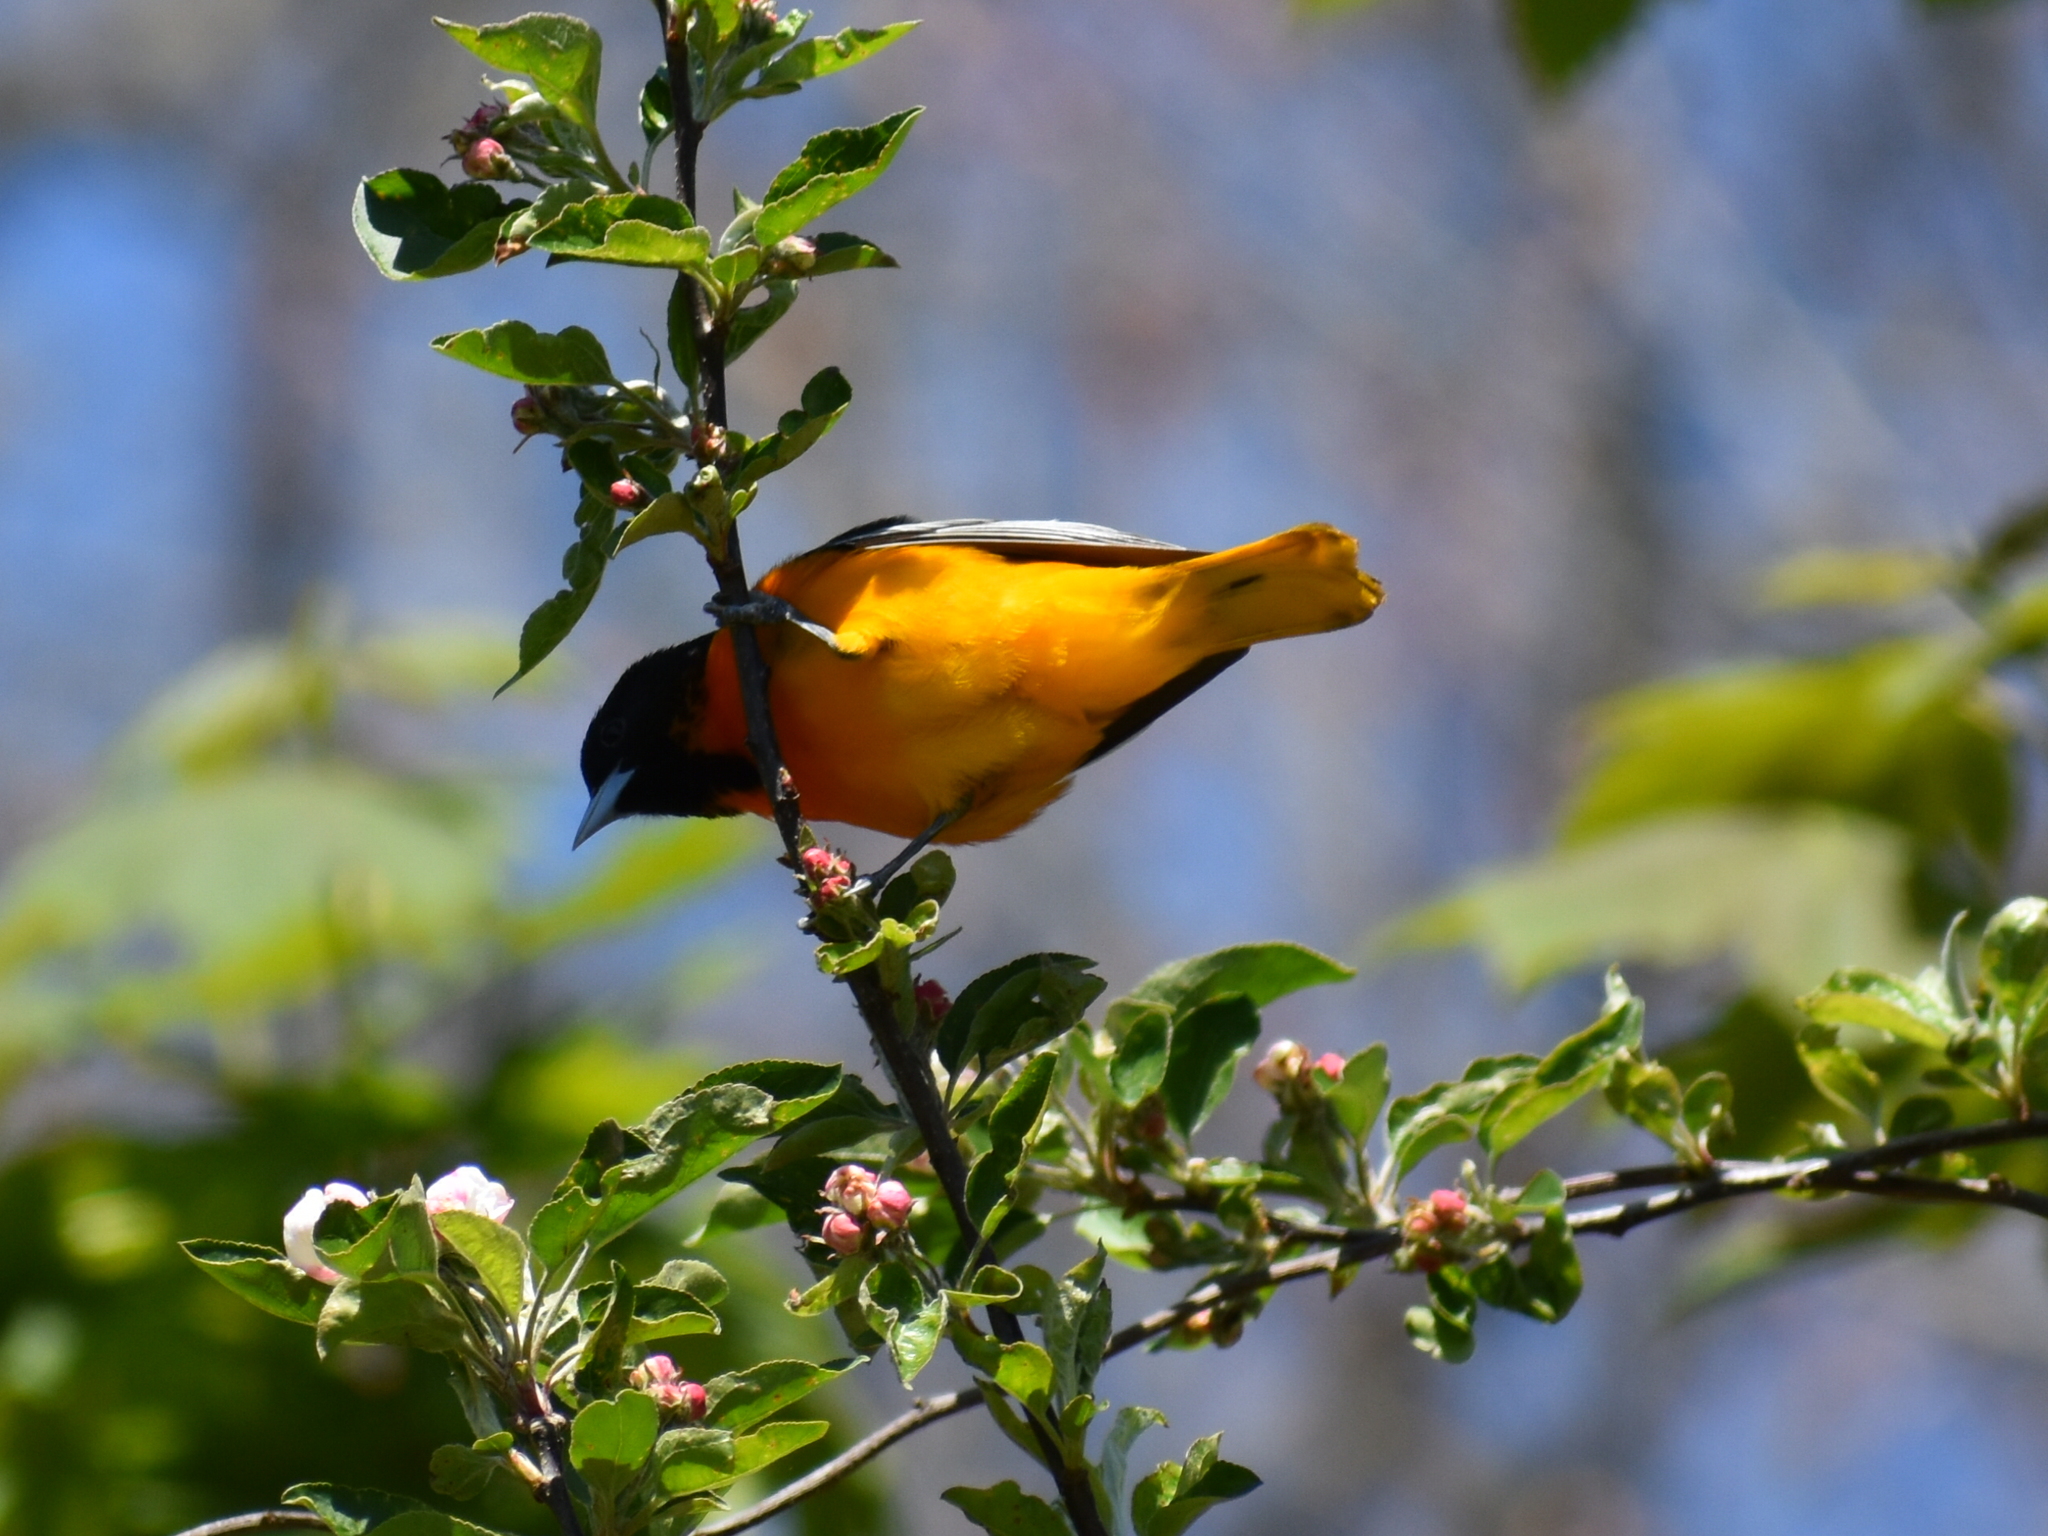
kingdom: Animalia
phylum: Chordata
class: Aves
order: Passeriformes
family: Icteridae
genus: Icterus
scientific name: Icterus galbula
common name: Baltimore oriole
